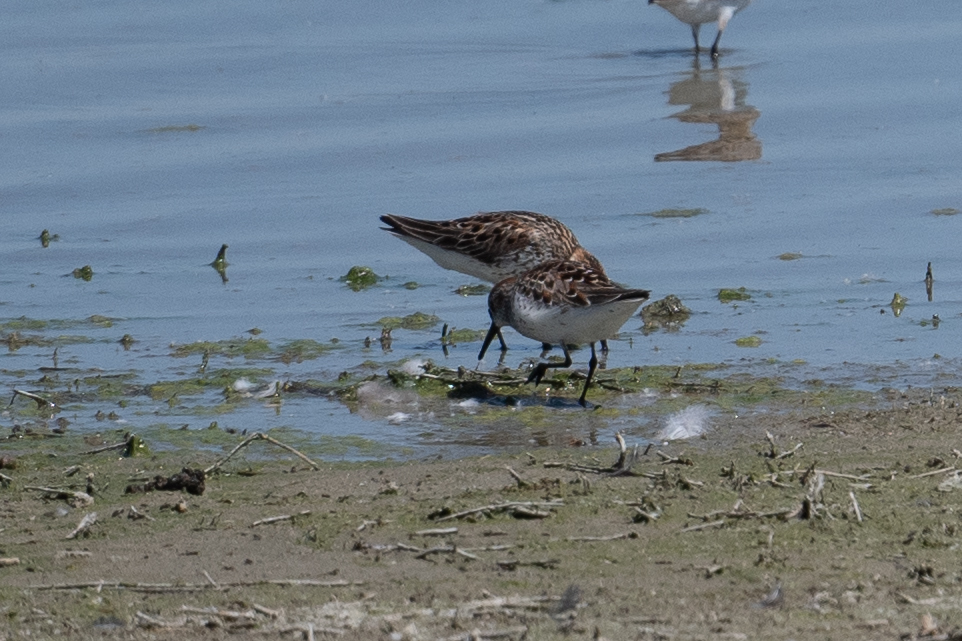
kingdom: Animalia
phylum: Chordata
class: Aves
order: Charadriiformes
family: Scolopacidae
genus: Calidris
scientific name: Calidris mauri
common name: Western sandpiper
